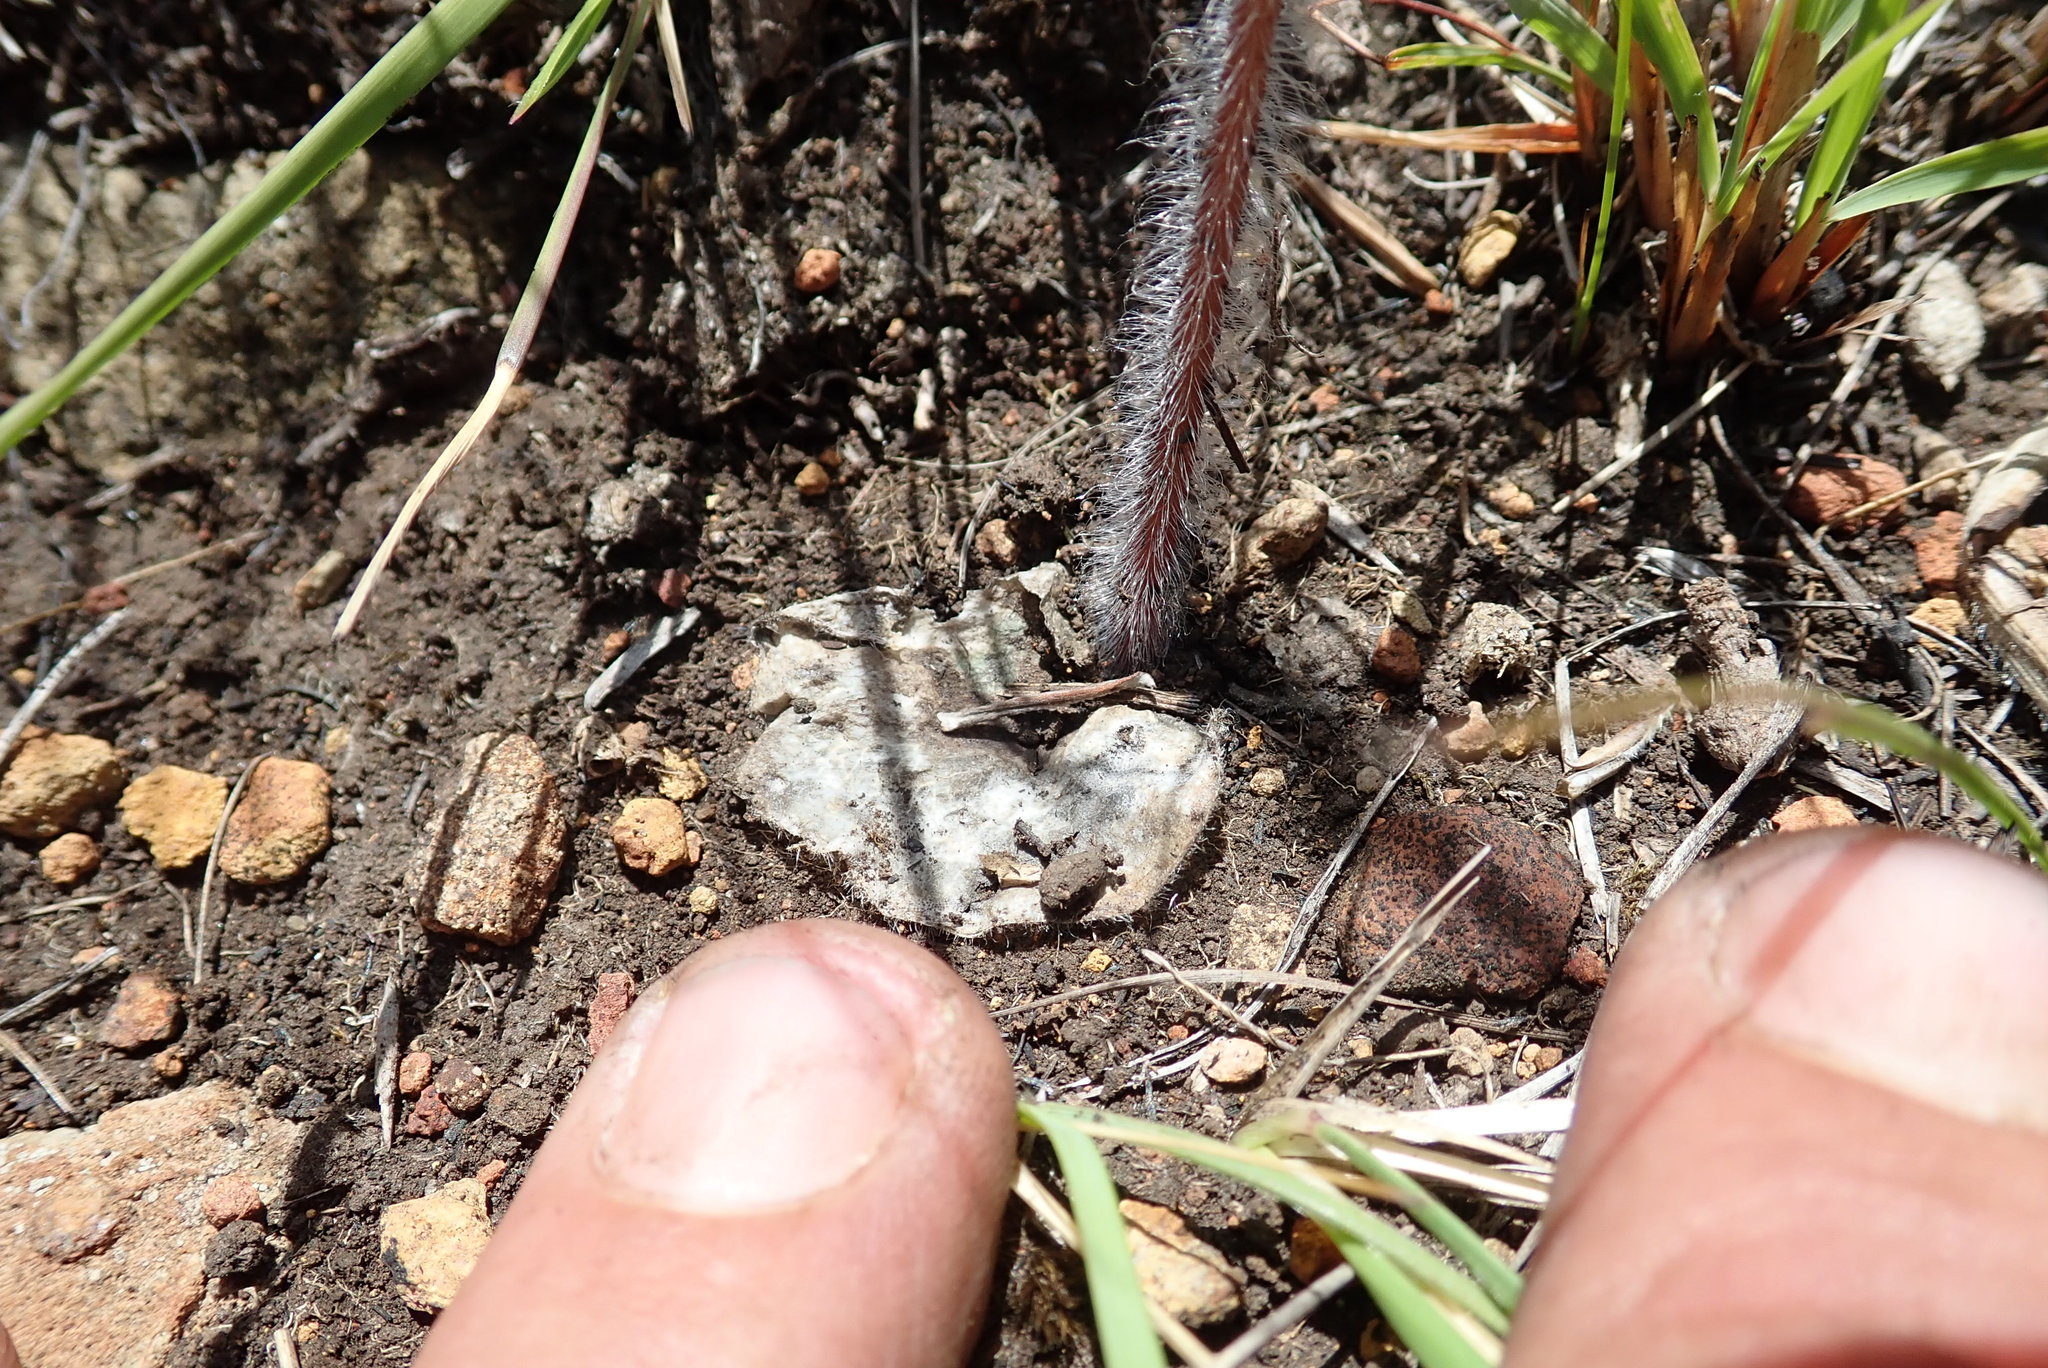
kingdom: Plantae
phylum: Tracheophyta
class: Liliopsida
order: Asparagales
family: Orchidaceae
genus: Holothrix
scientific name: Holothrix scopularia
